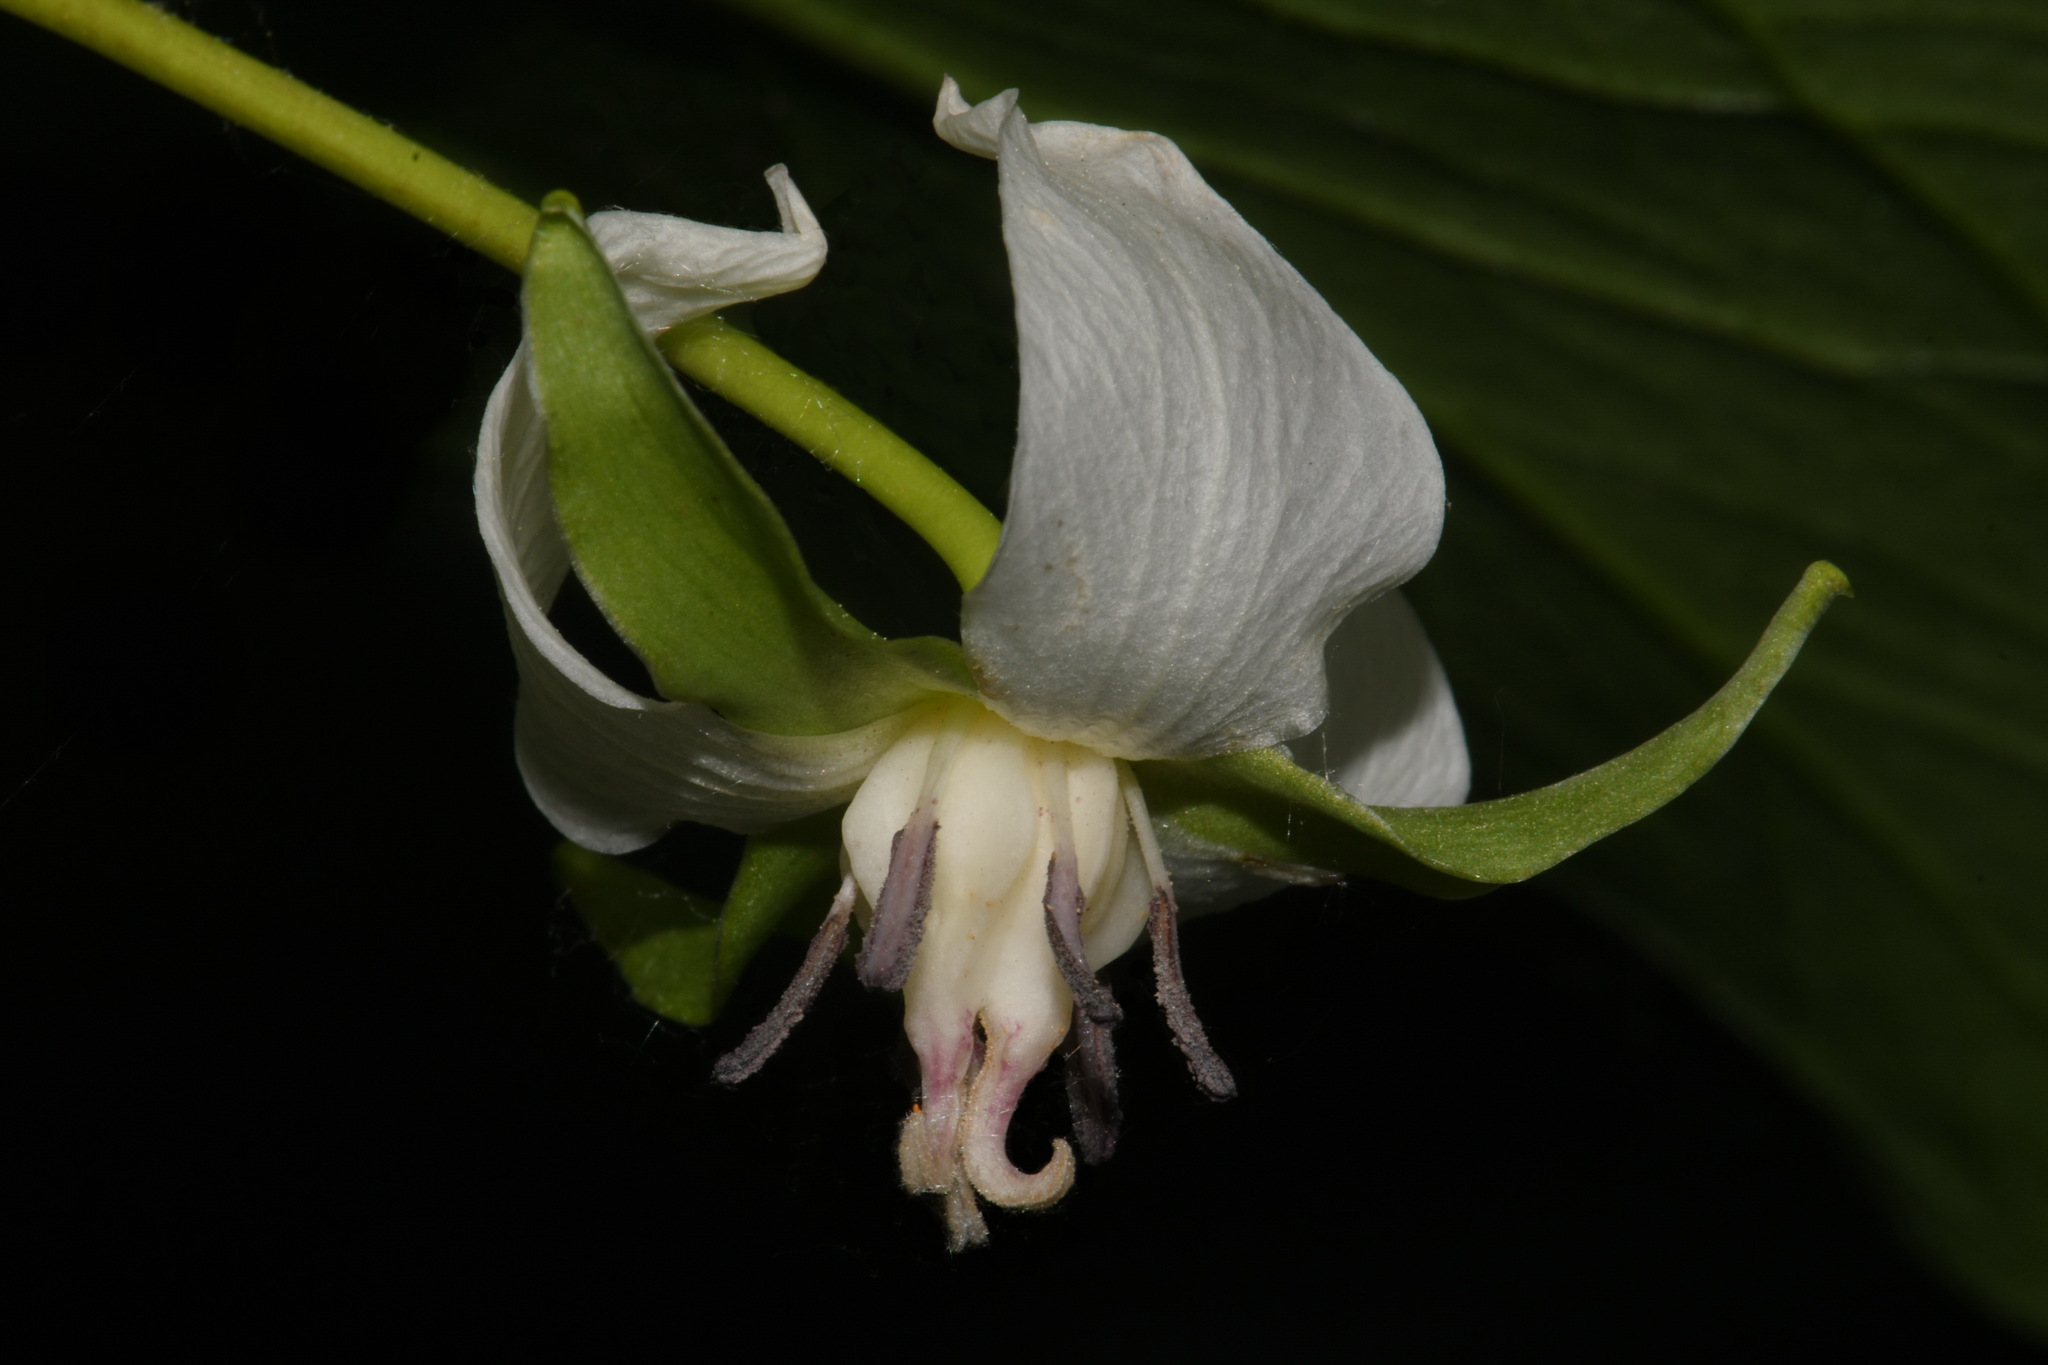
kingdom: Plantae
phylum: Tracheophyta
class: Liliopsida
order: Liliales
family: Melanthiaceae
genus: Trillium
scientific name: Trillium cernuum
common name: Nodding trillium
